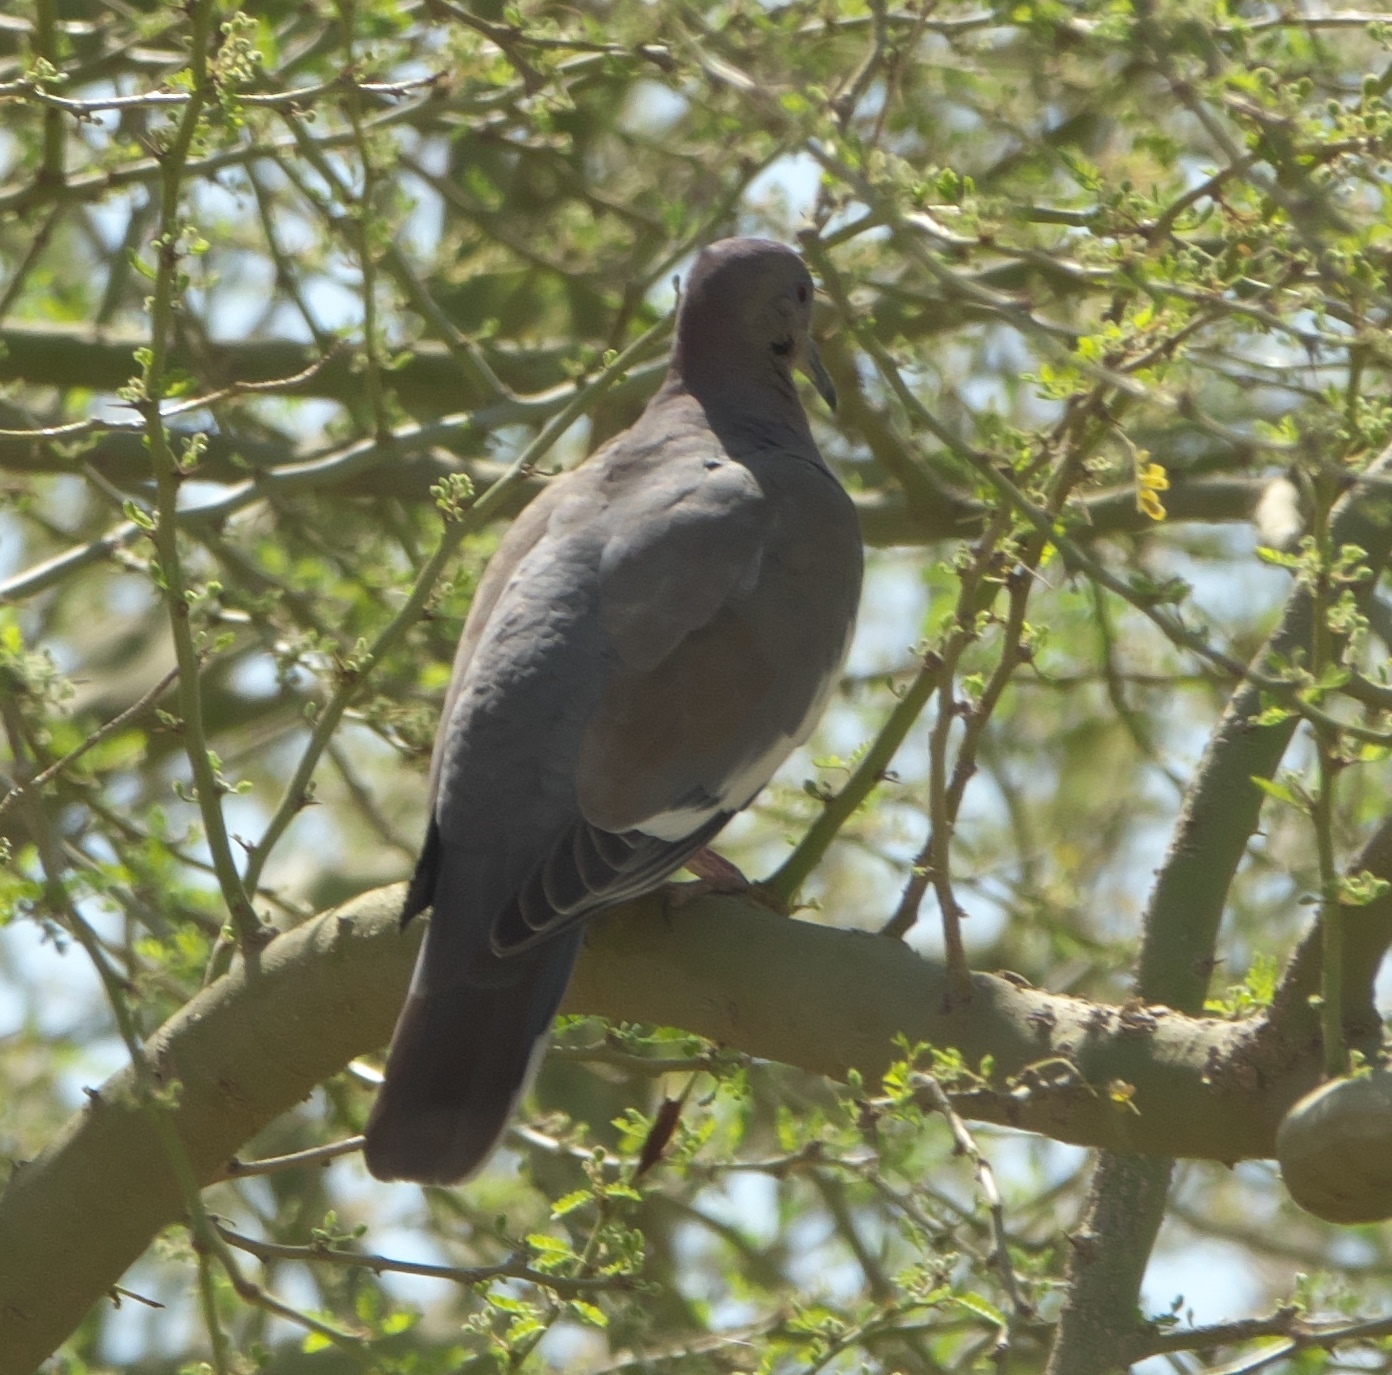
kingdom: Animalia
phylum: Chordata
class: Aves
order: Columbiformes
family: Columbidae
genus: Zenaida
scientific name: Zenaida asiatica
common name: White-winged dove
